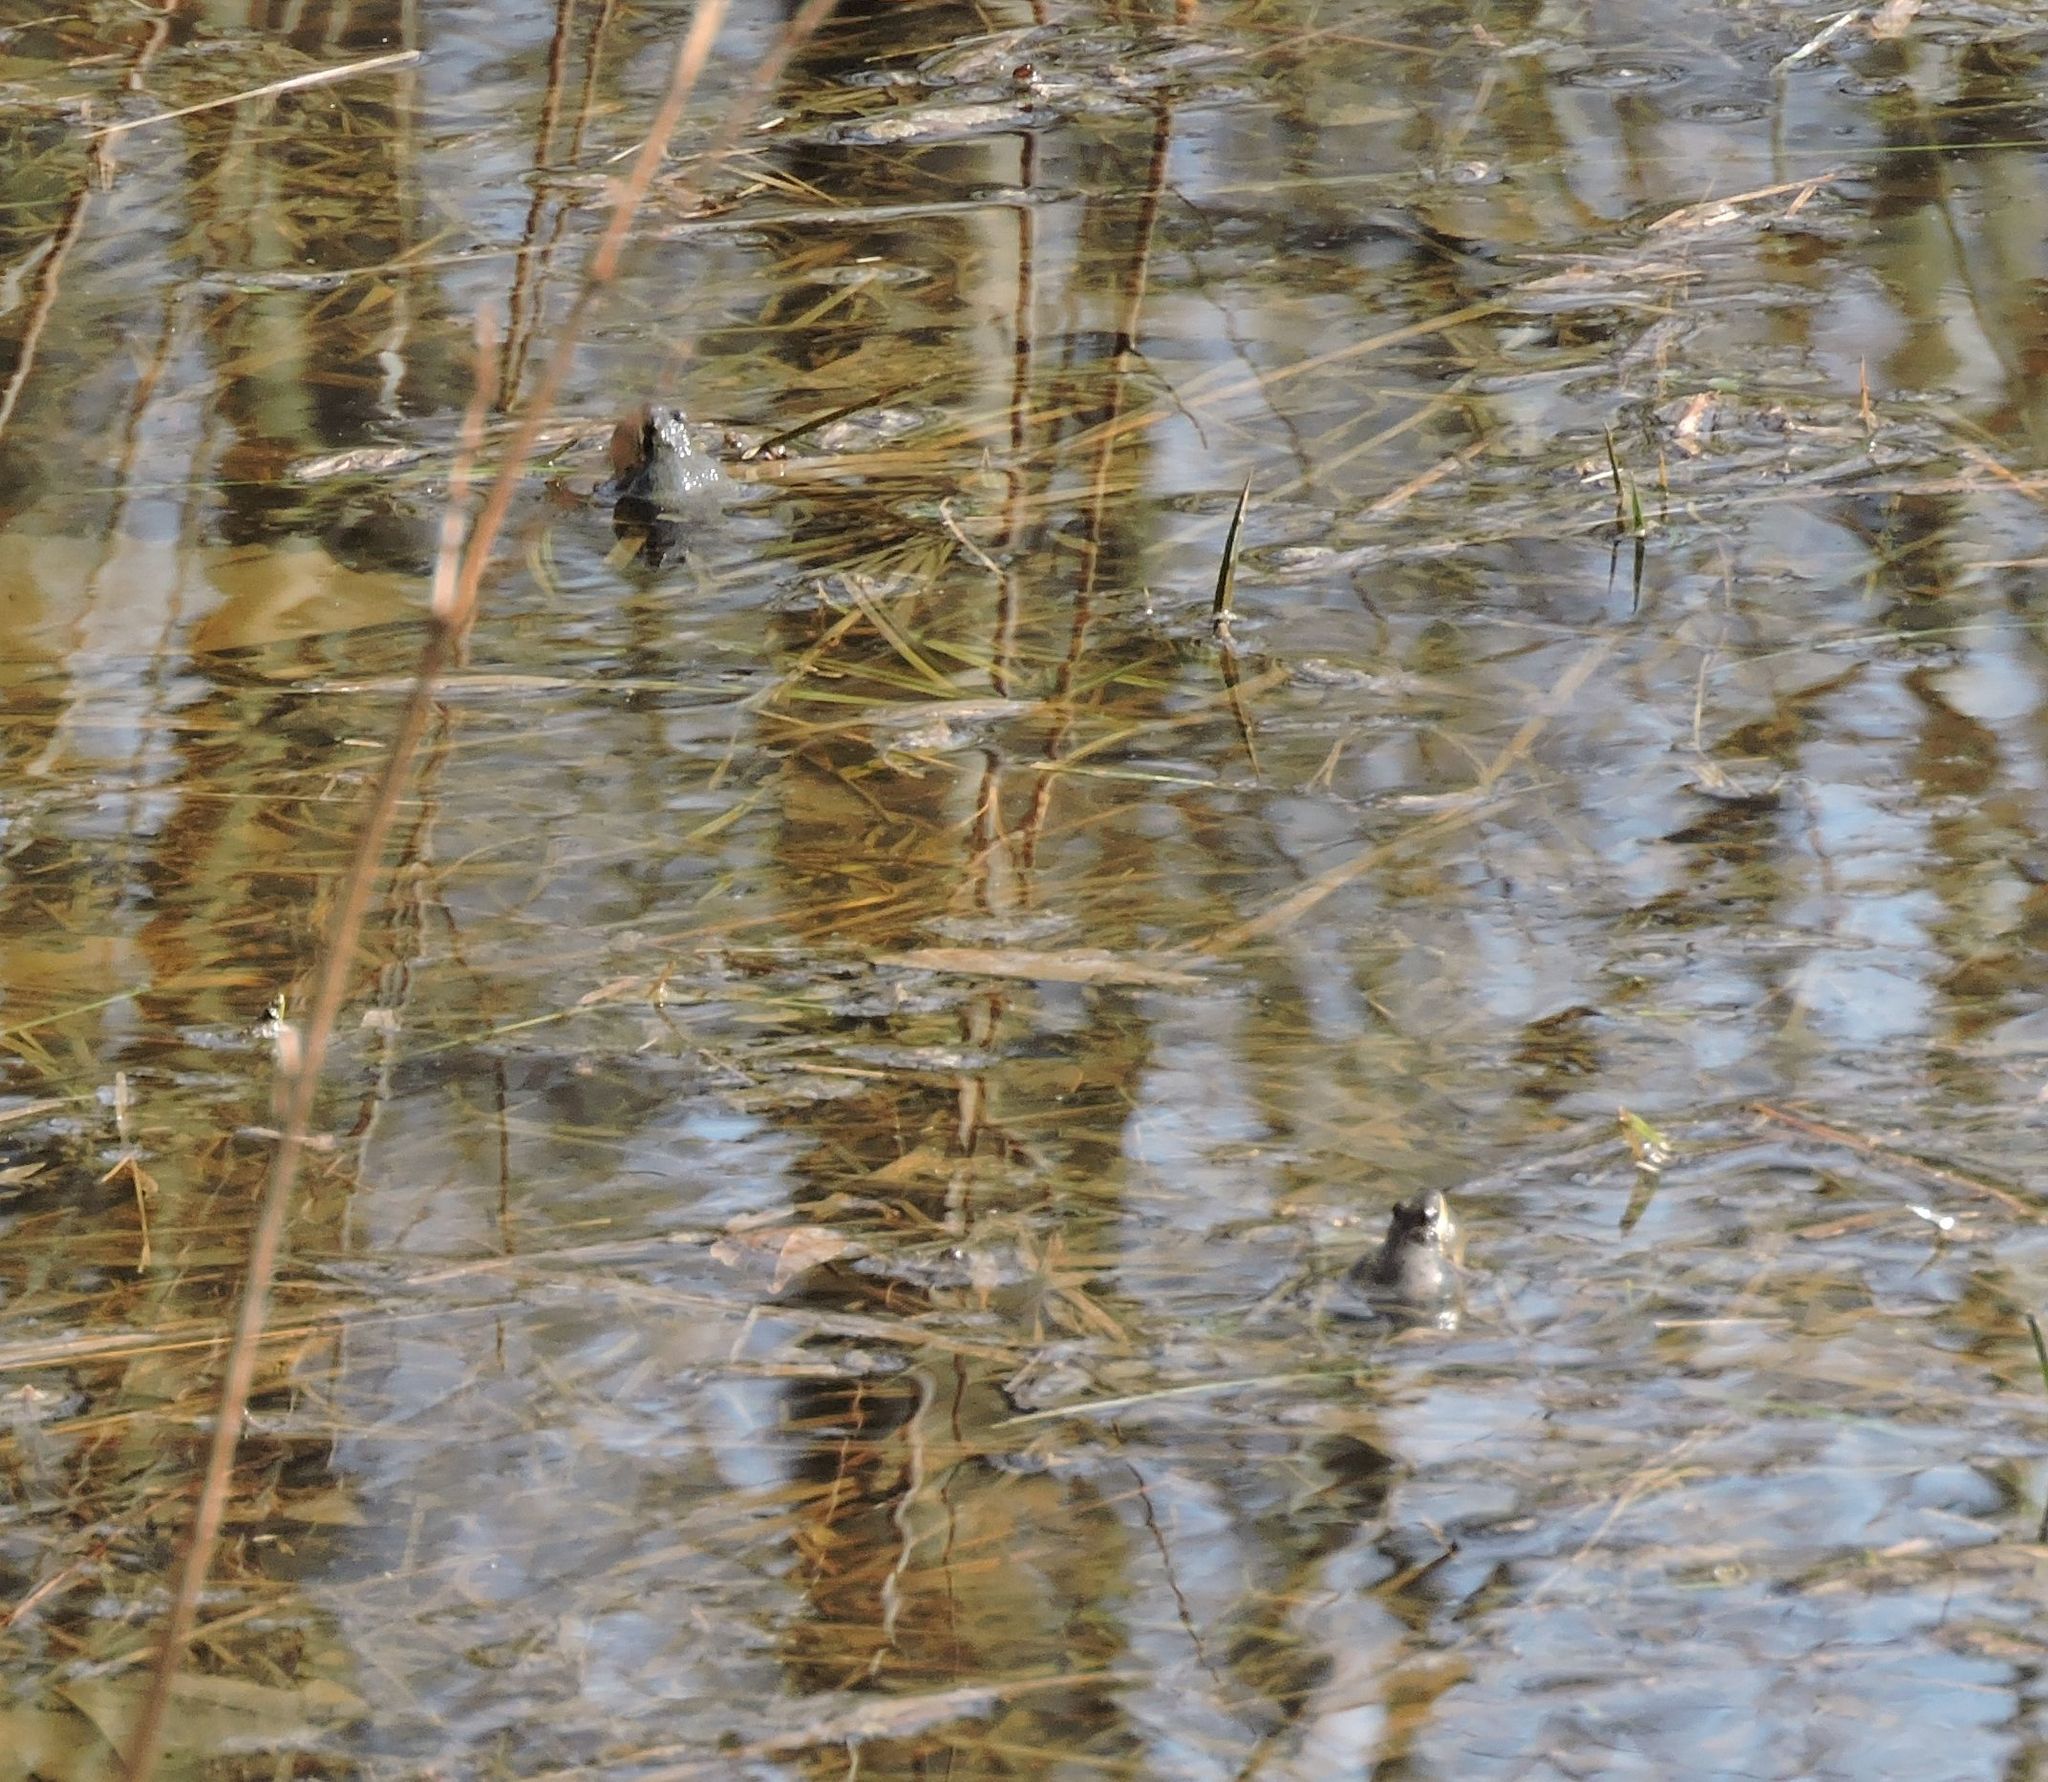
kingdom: Animalia
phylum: Chordata
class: Amphibia
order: Anura
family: Hylidae
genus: Pseudacris
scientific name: Pseudacris feriarum
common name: Upland chorus frog
